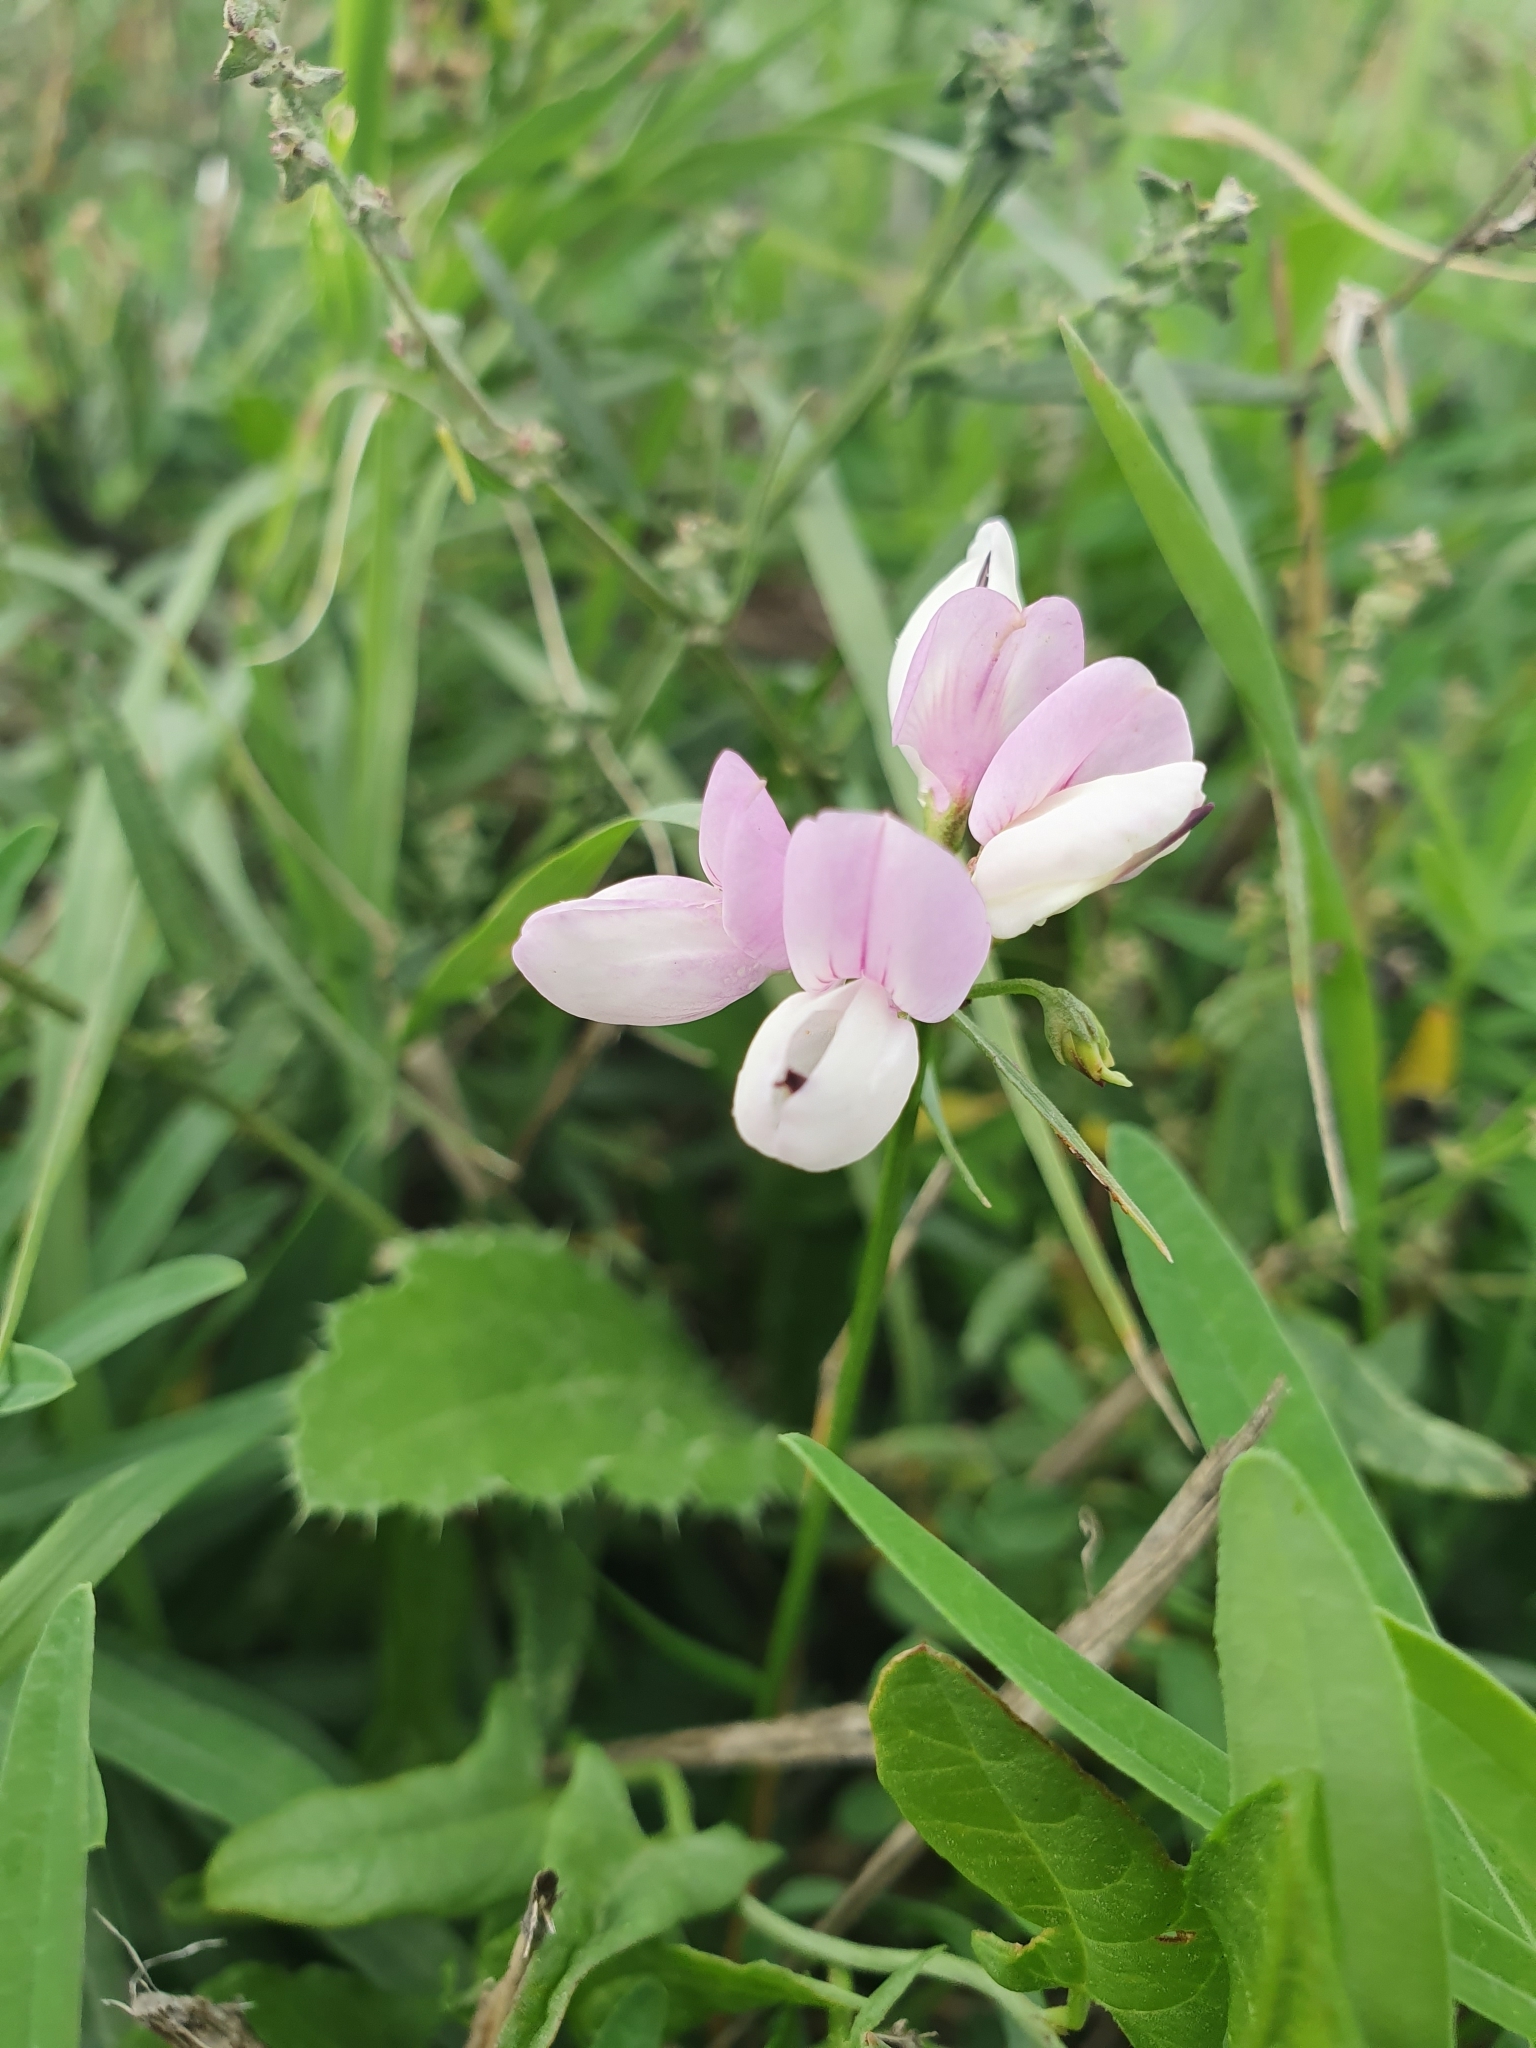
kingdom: Plantae
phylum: Tracheophyta
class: Magnoliopsida
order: Fabales
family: Fabaceae
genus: Coronilla
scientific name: Coronilla varia
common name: Crownvetch
